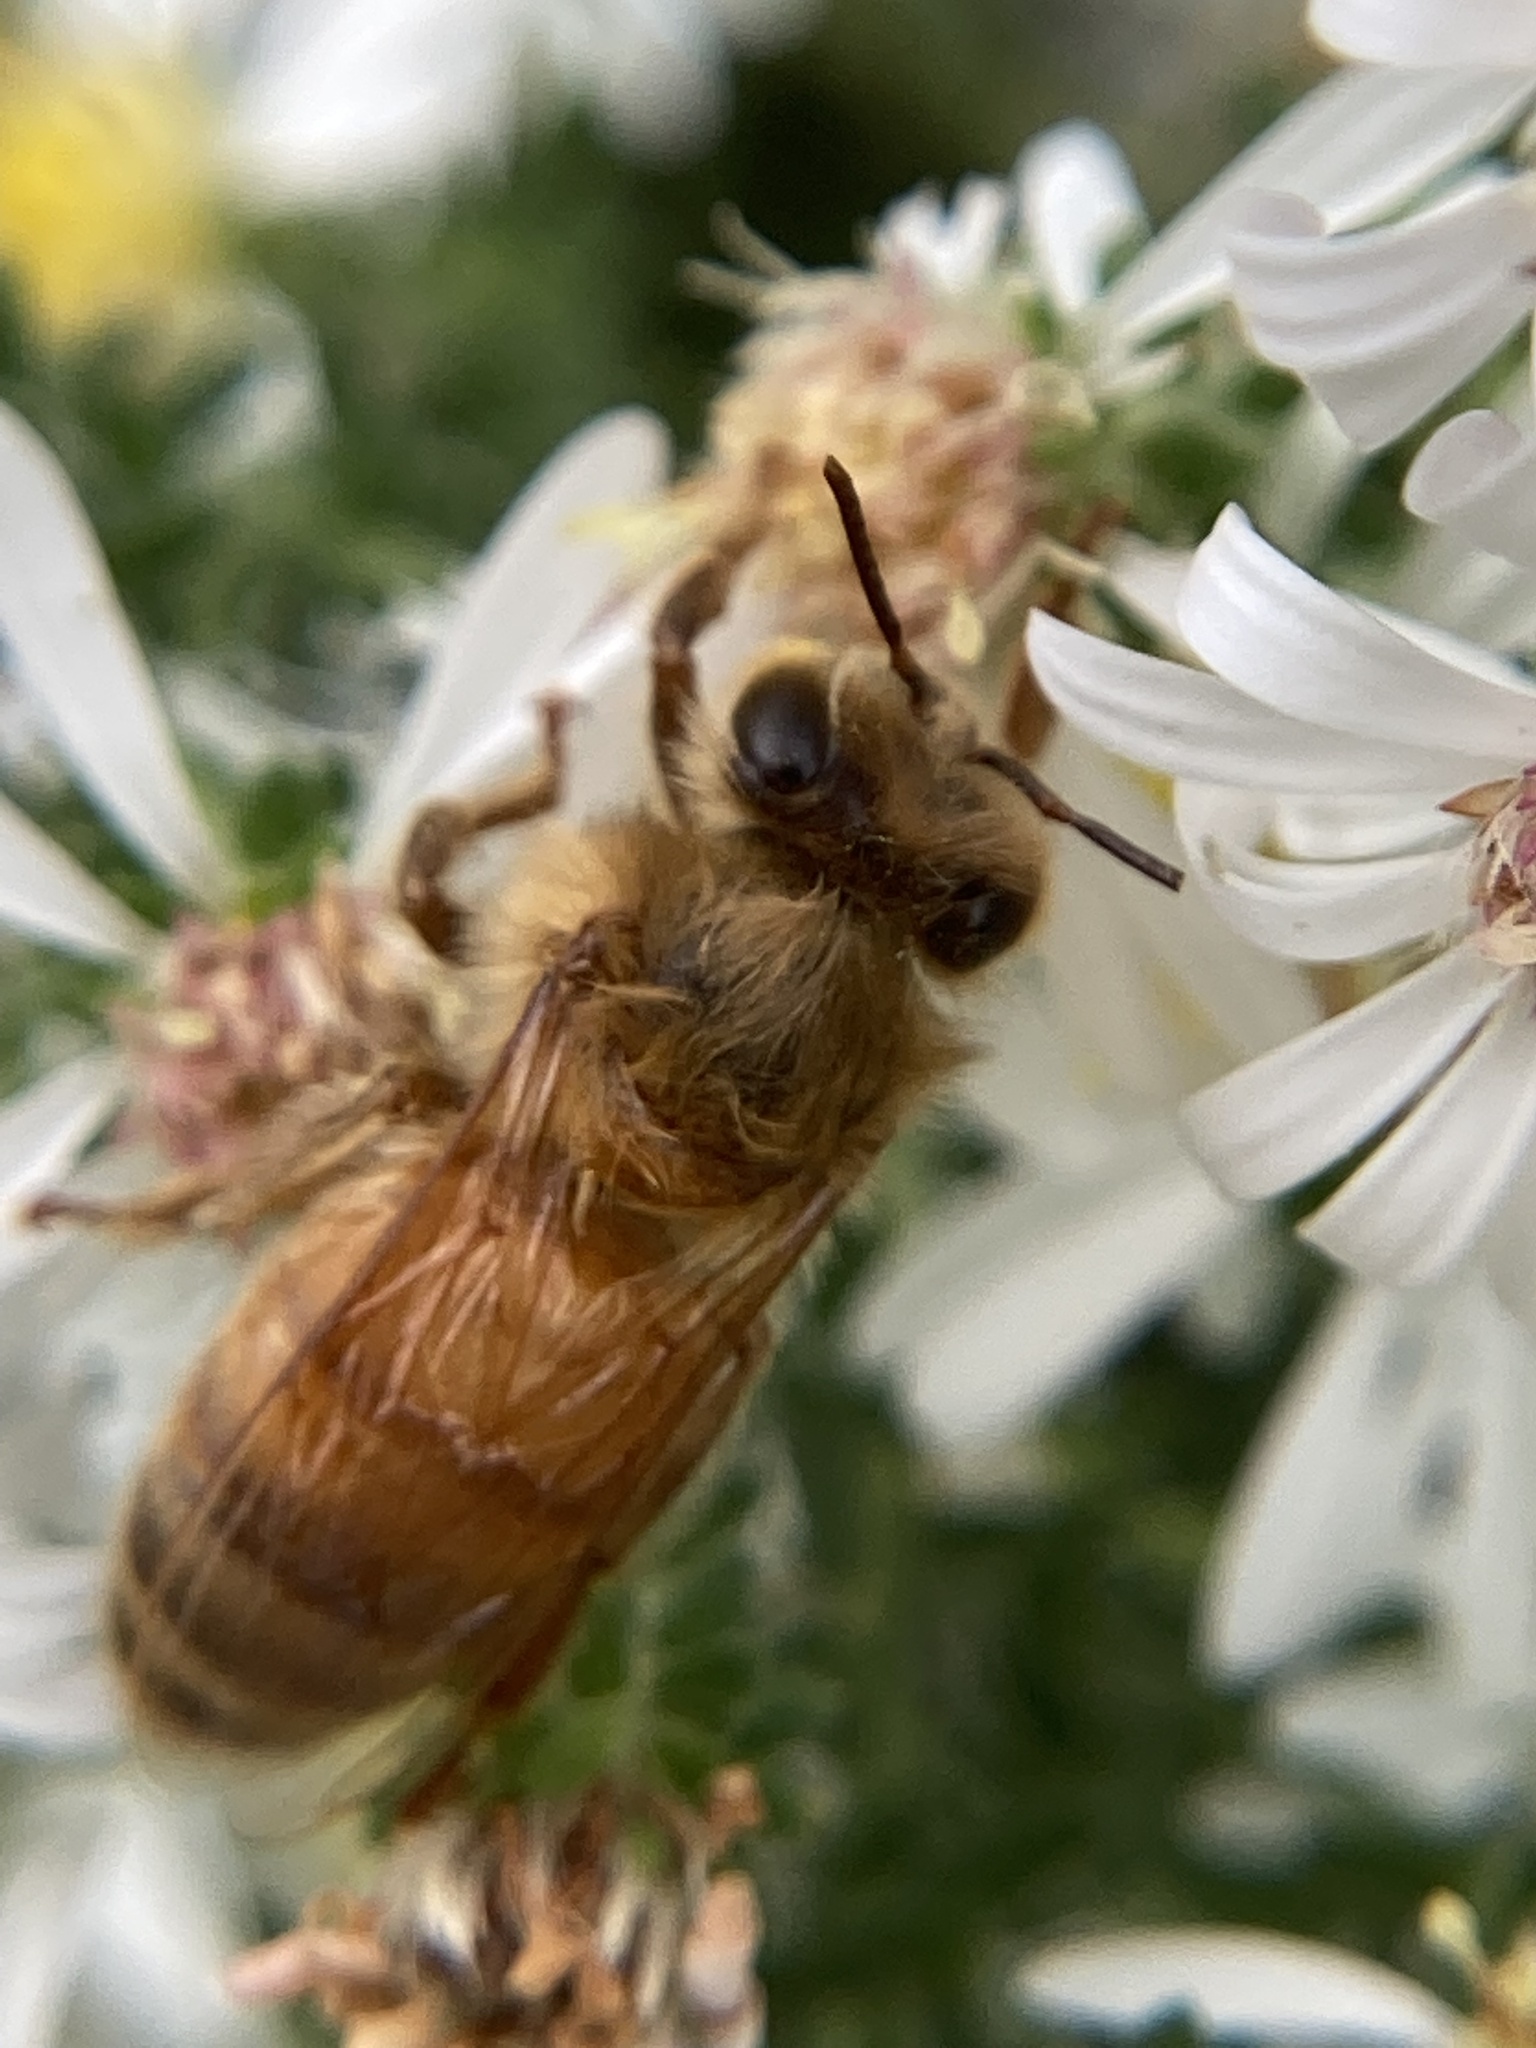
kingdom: Animalia
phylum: Arthropoda
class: Insecta
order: Hymenoptera
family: Apidae
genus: Apis
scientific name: Apis mellifera
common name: Honey bee
